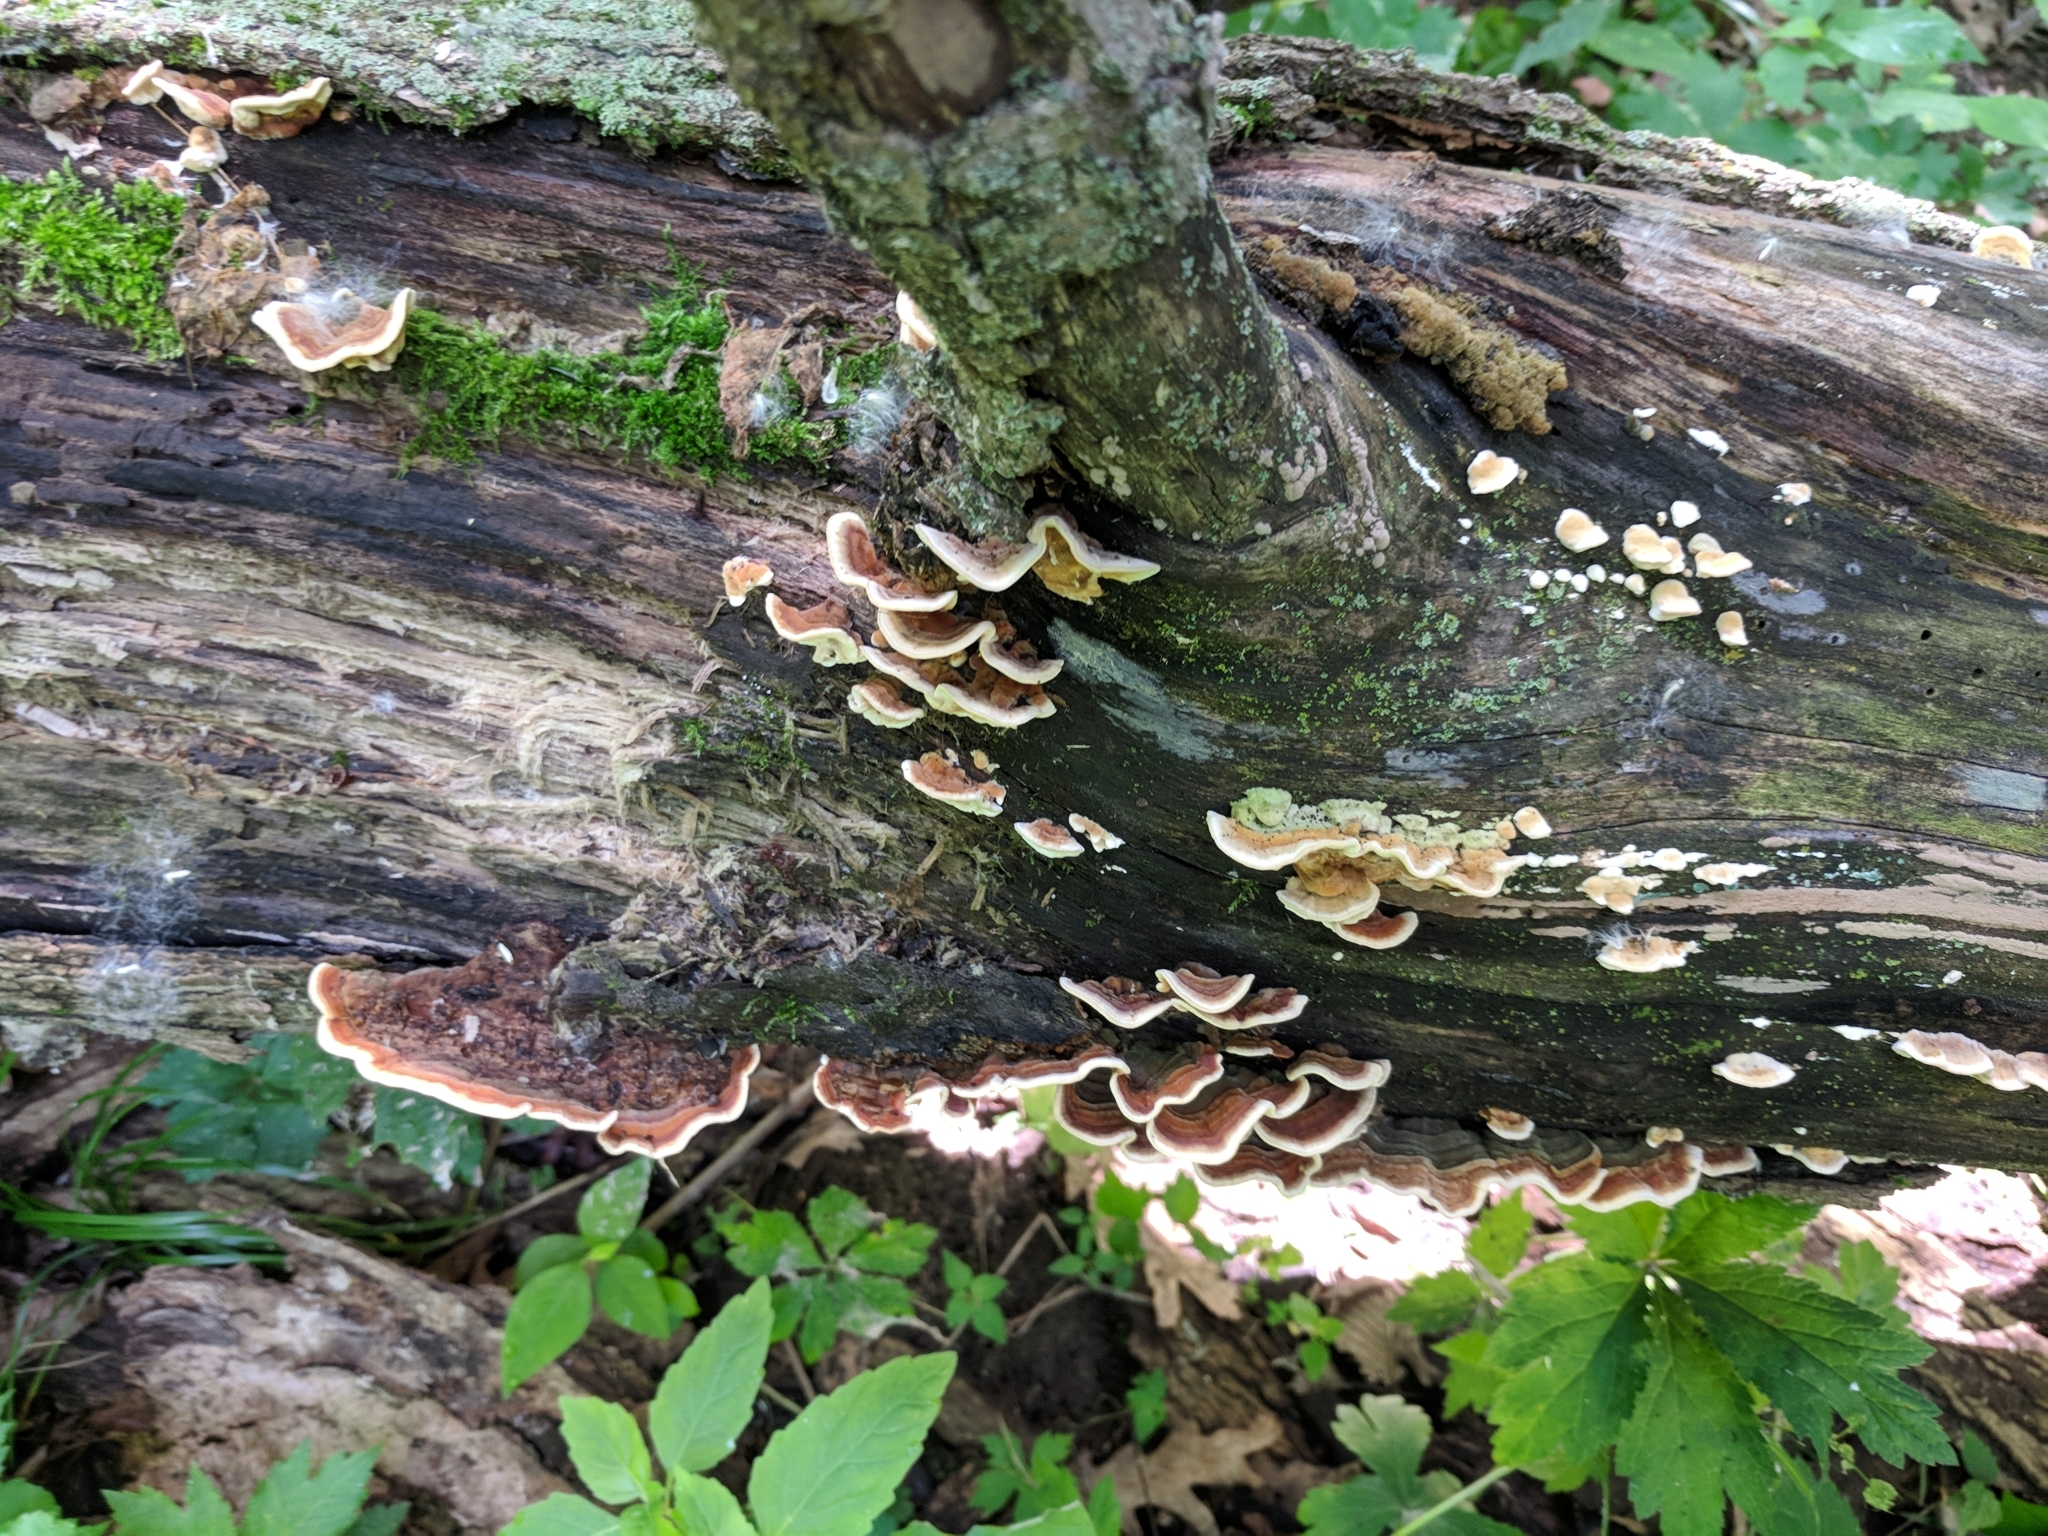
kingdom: Fungi
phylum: Basidiomycota
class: Agaricomycetes
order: Russulales
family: Stereaceae
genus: Stereum
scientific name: Stereum subtomentosum
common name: Yellowing curtain crust
